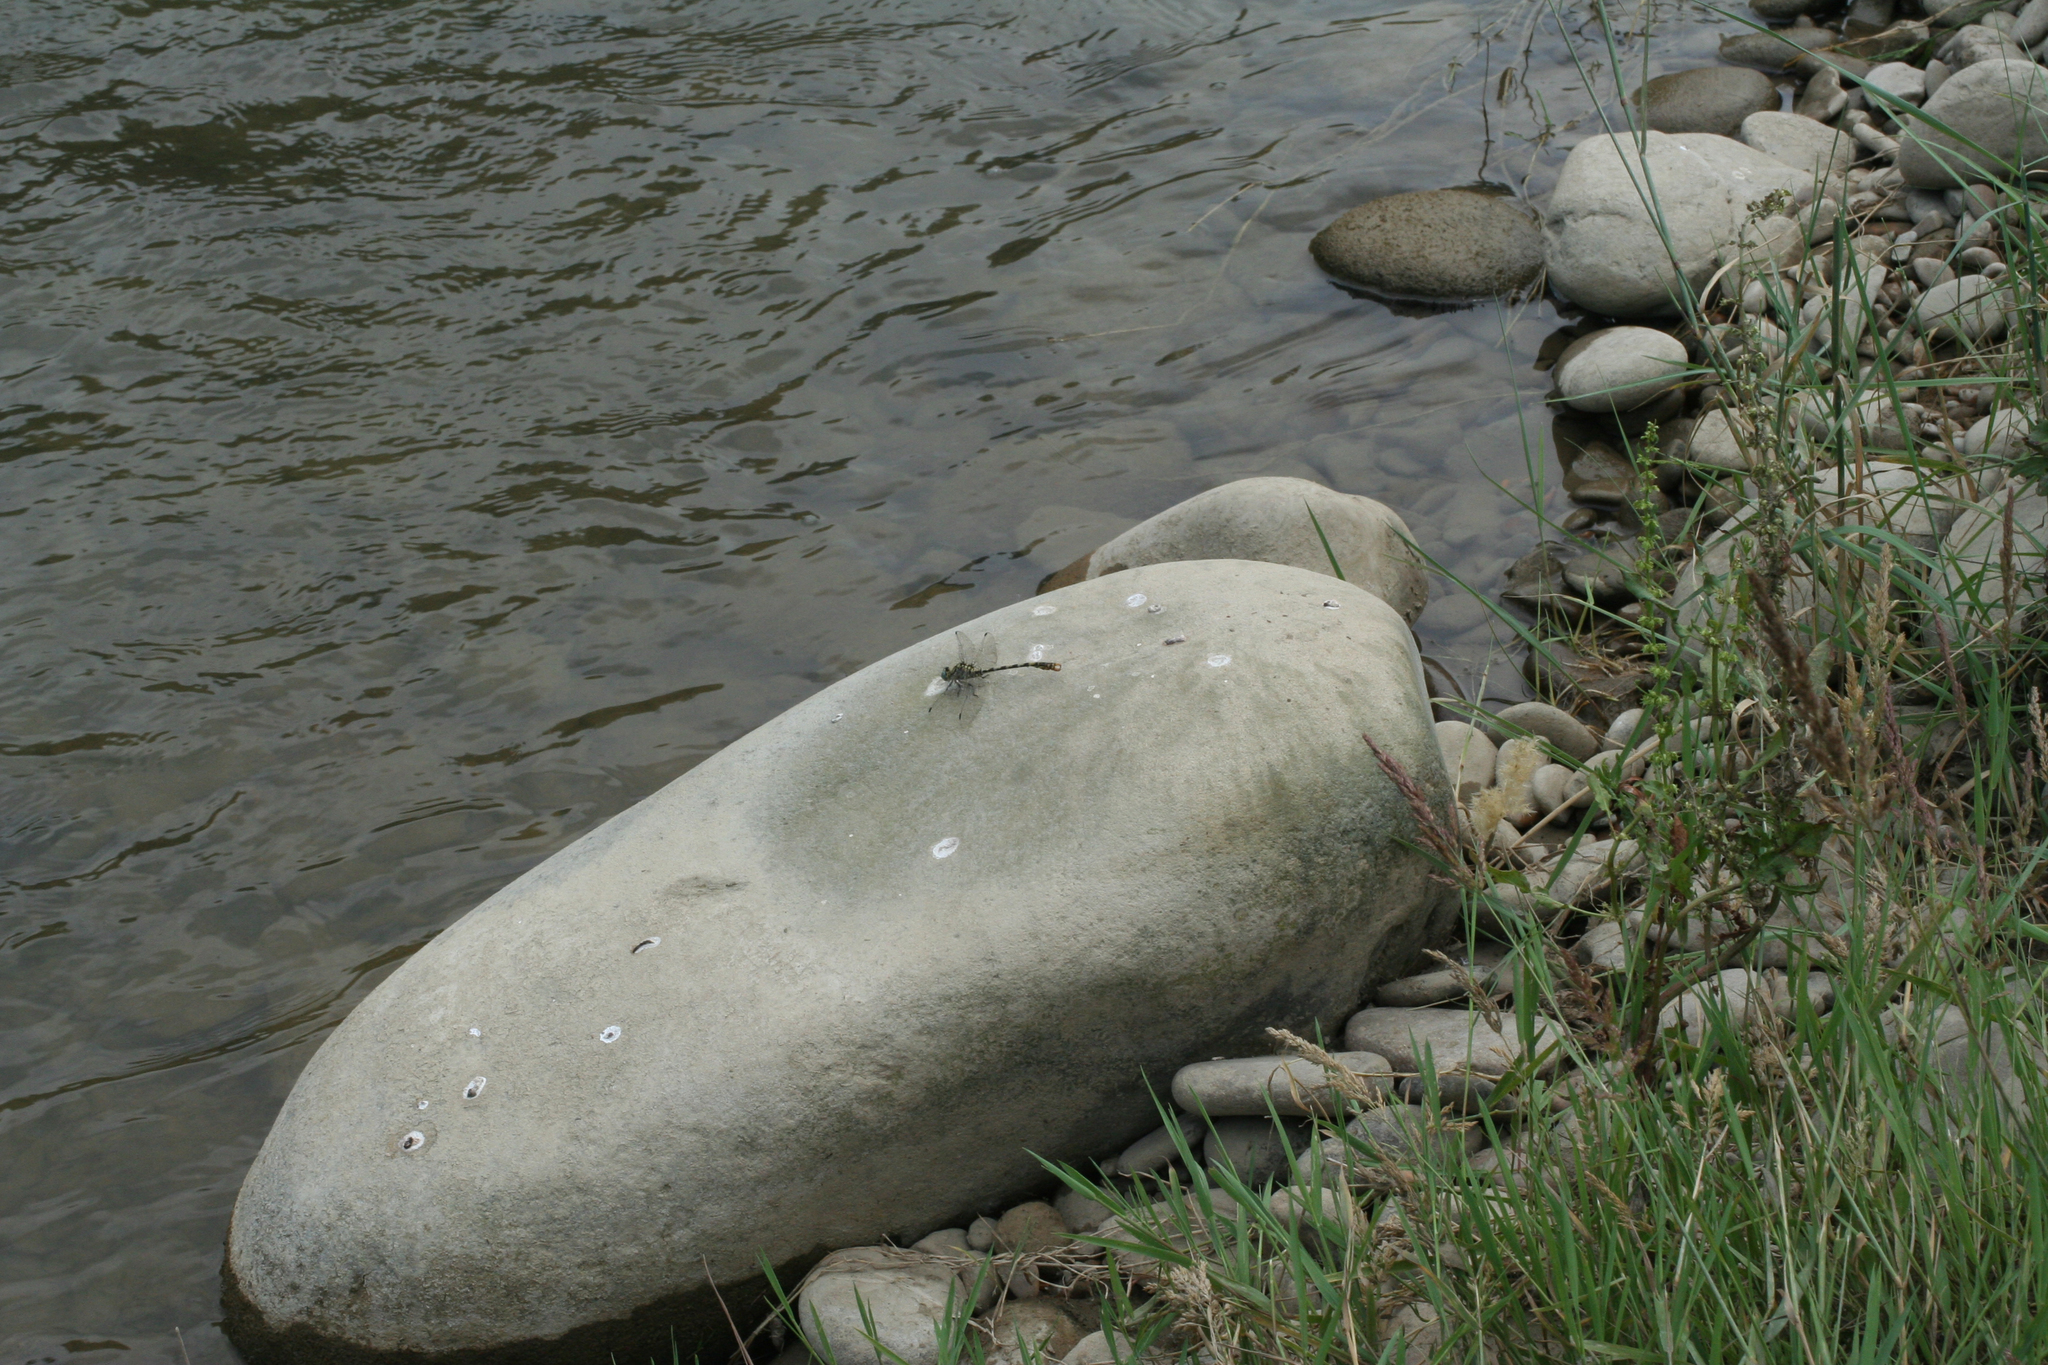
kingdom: Animalia
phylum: Arthropoda
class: Insecta
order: Odonata
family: Gomphidae
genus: Onychogomphus
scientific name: Onychogomphus forcipatus
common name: Small pincertail
